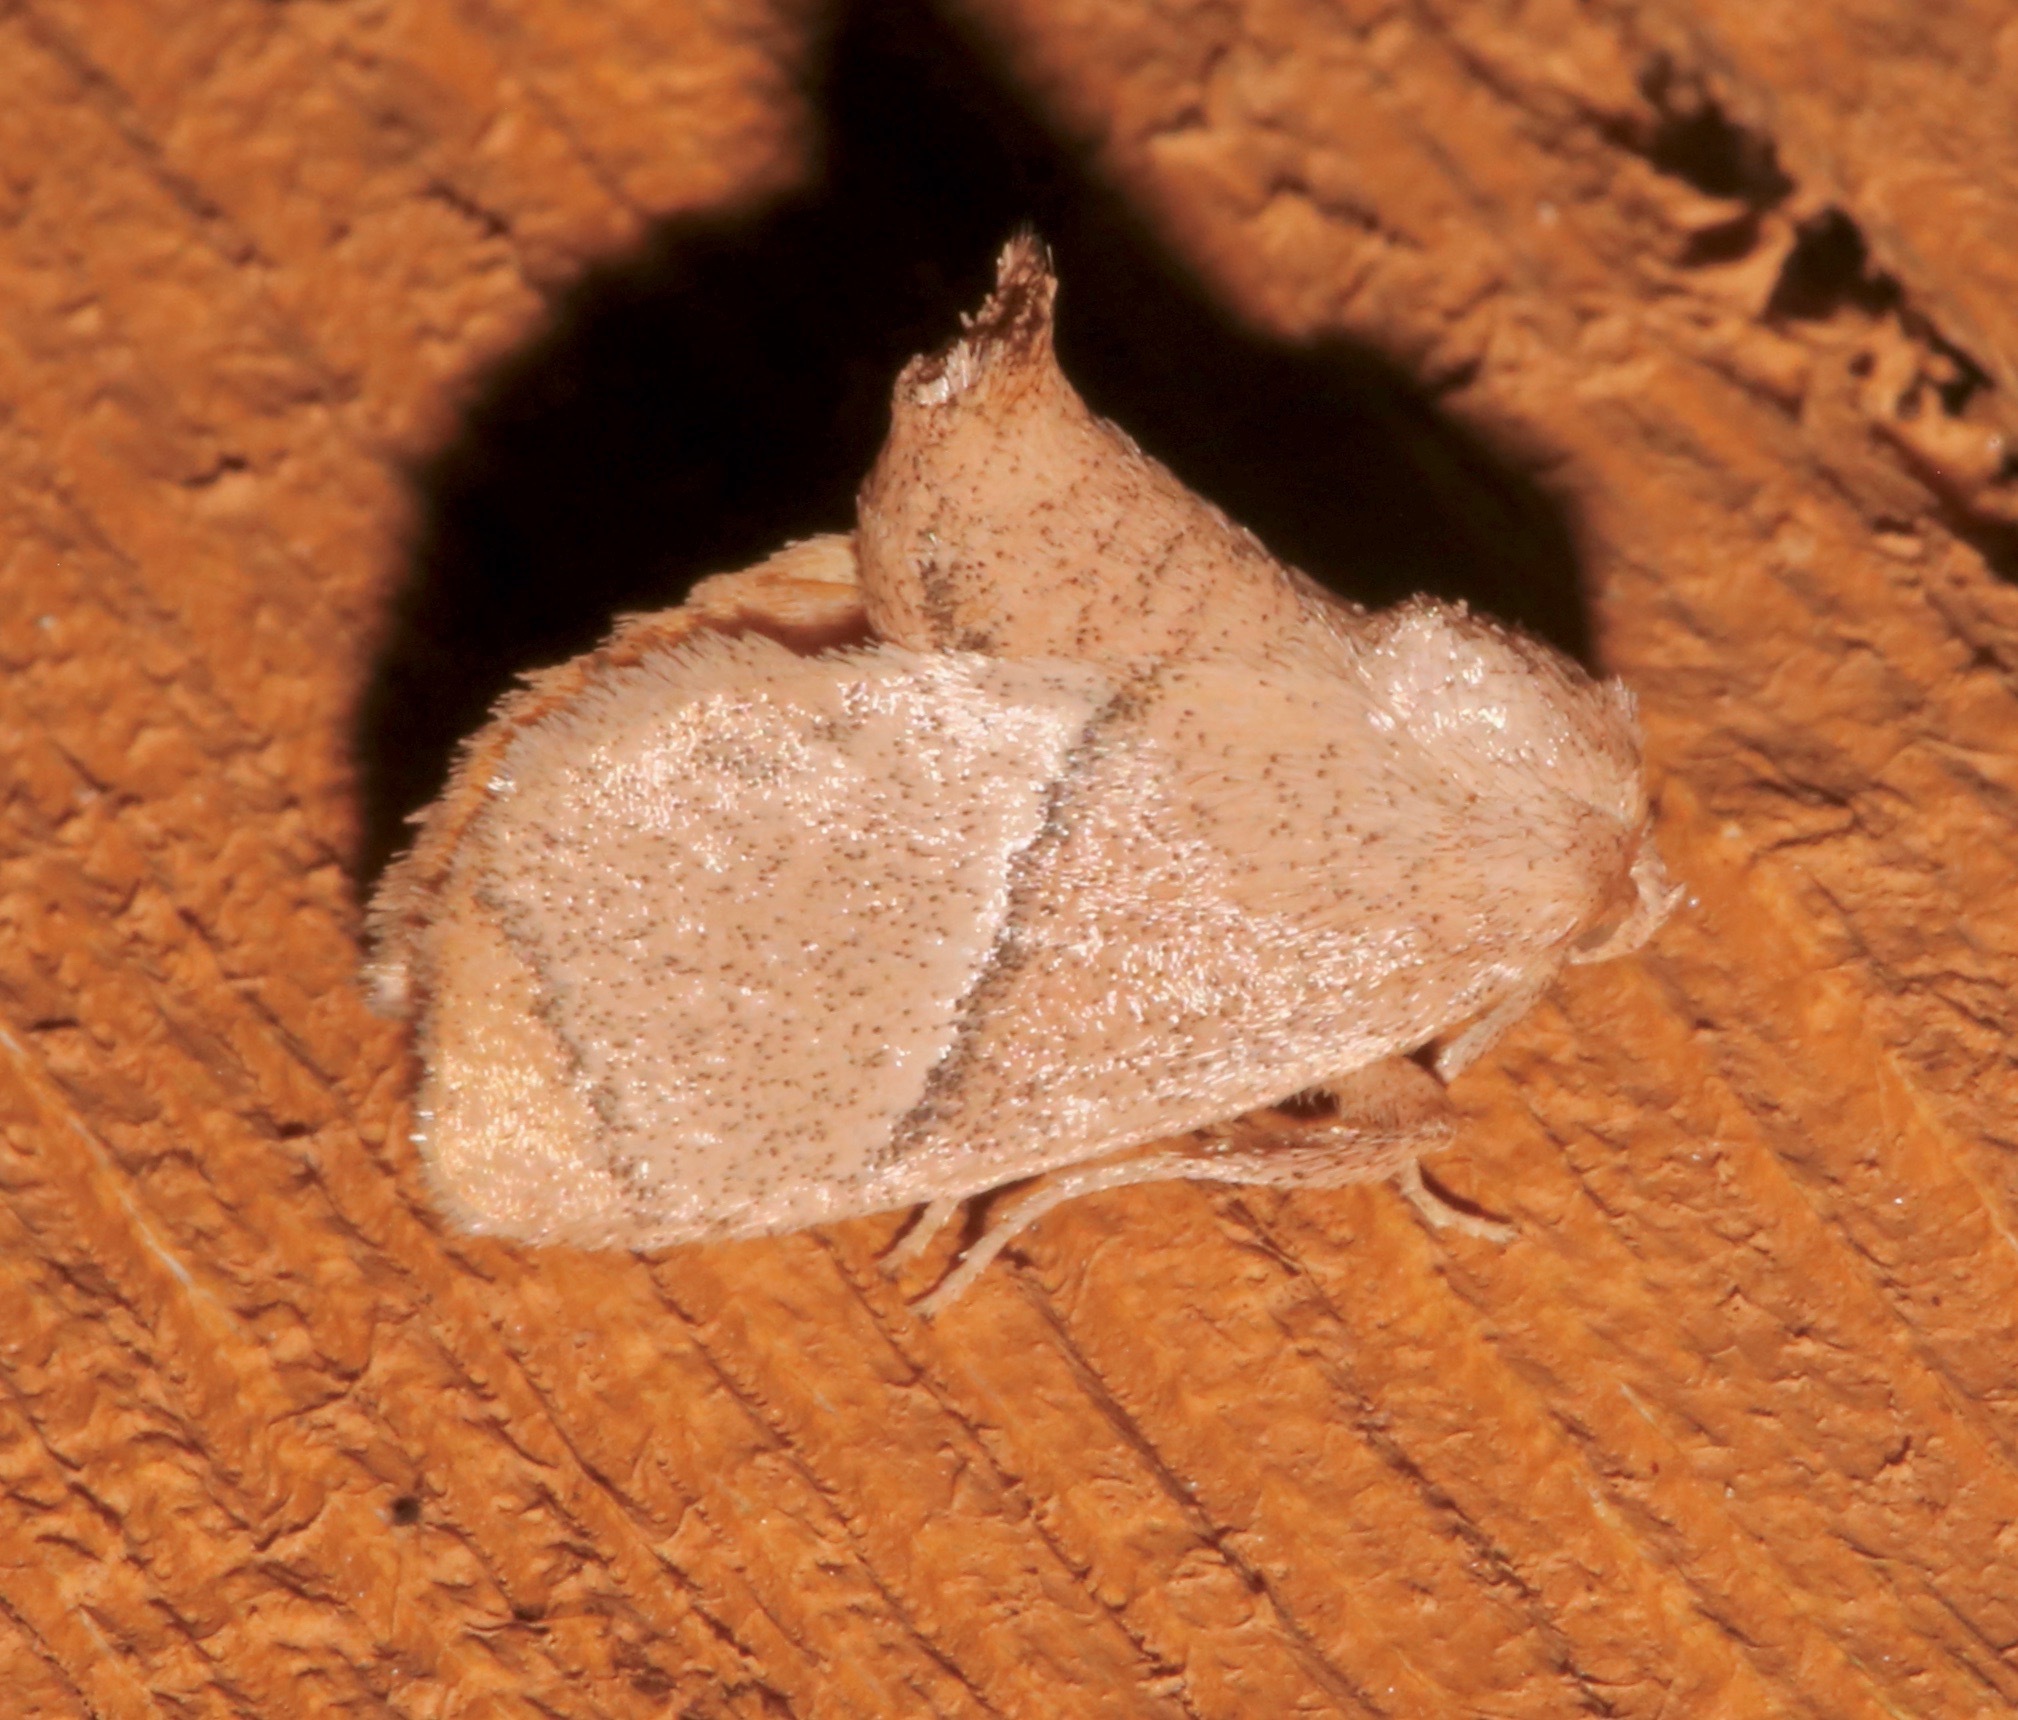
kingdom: Animalia
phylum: Arthropoda
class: Insecta
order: Lepidoptera
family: Limacodidae
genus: Apoda
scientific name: Apoda rectilinea
